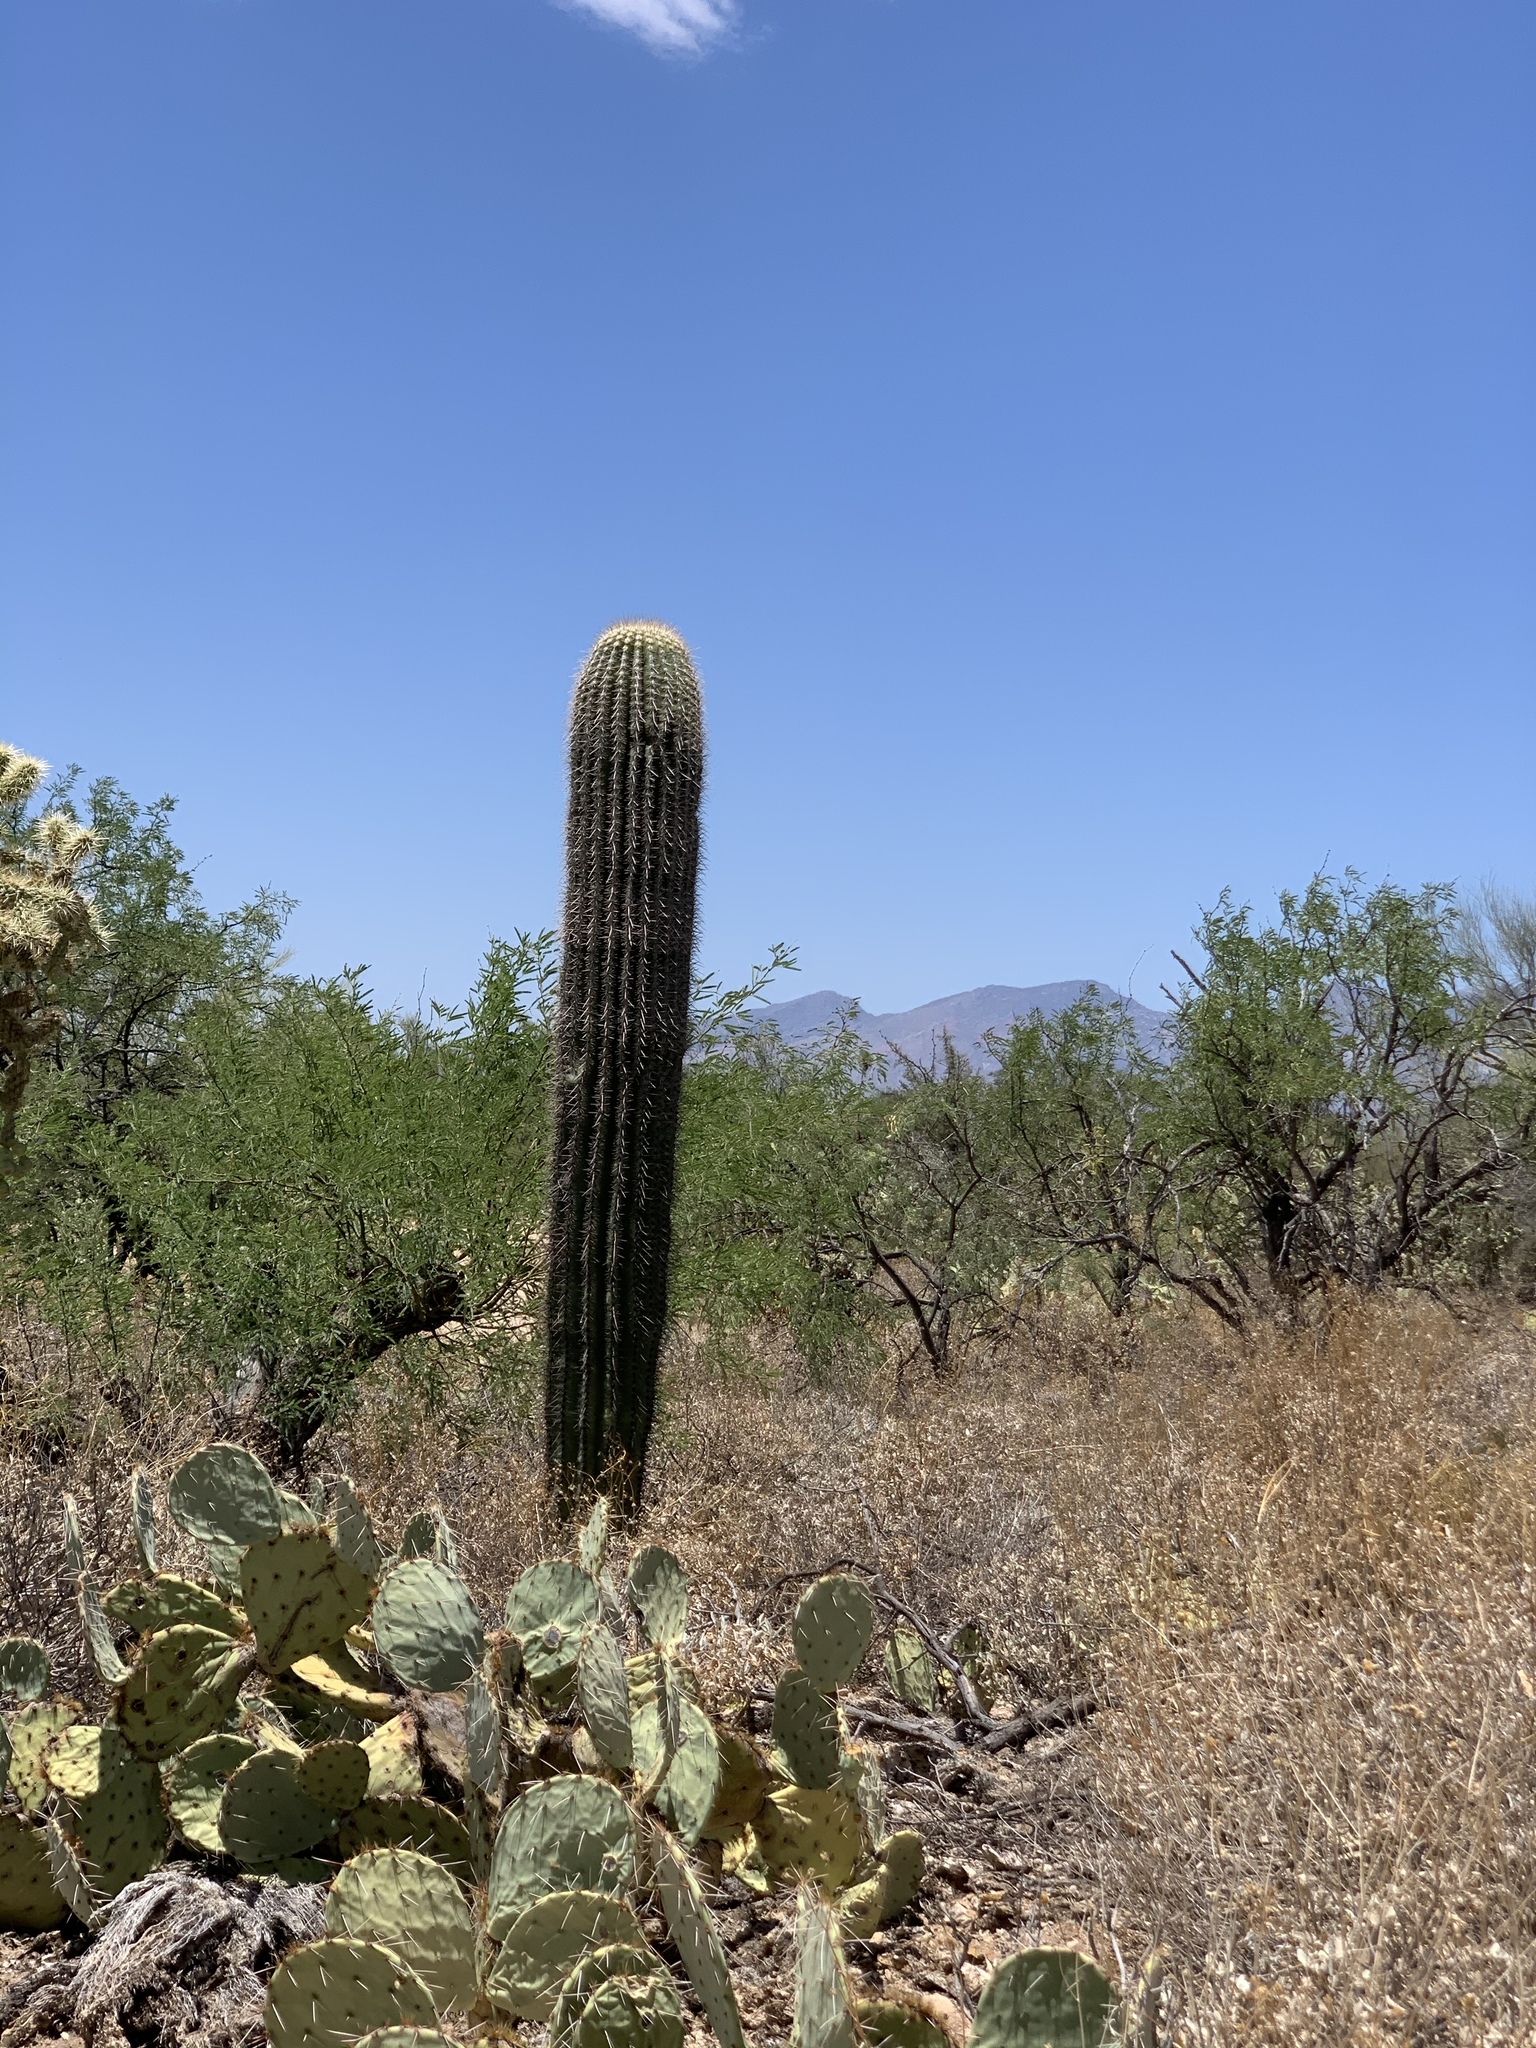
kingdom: Plantae
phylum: Tracheophyta
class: Magnoliopsida
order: Caryophyllales
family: Cactaceae
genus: Carnegiea
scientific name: Carnegiea gigantea
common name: Saguaro
